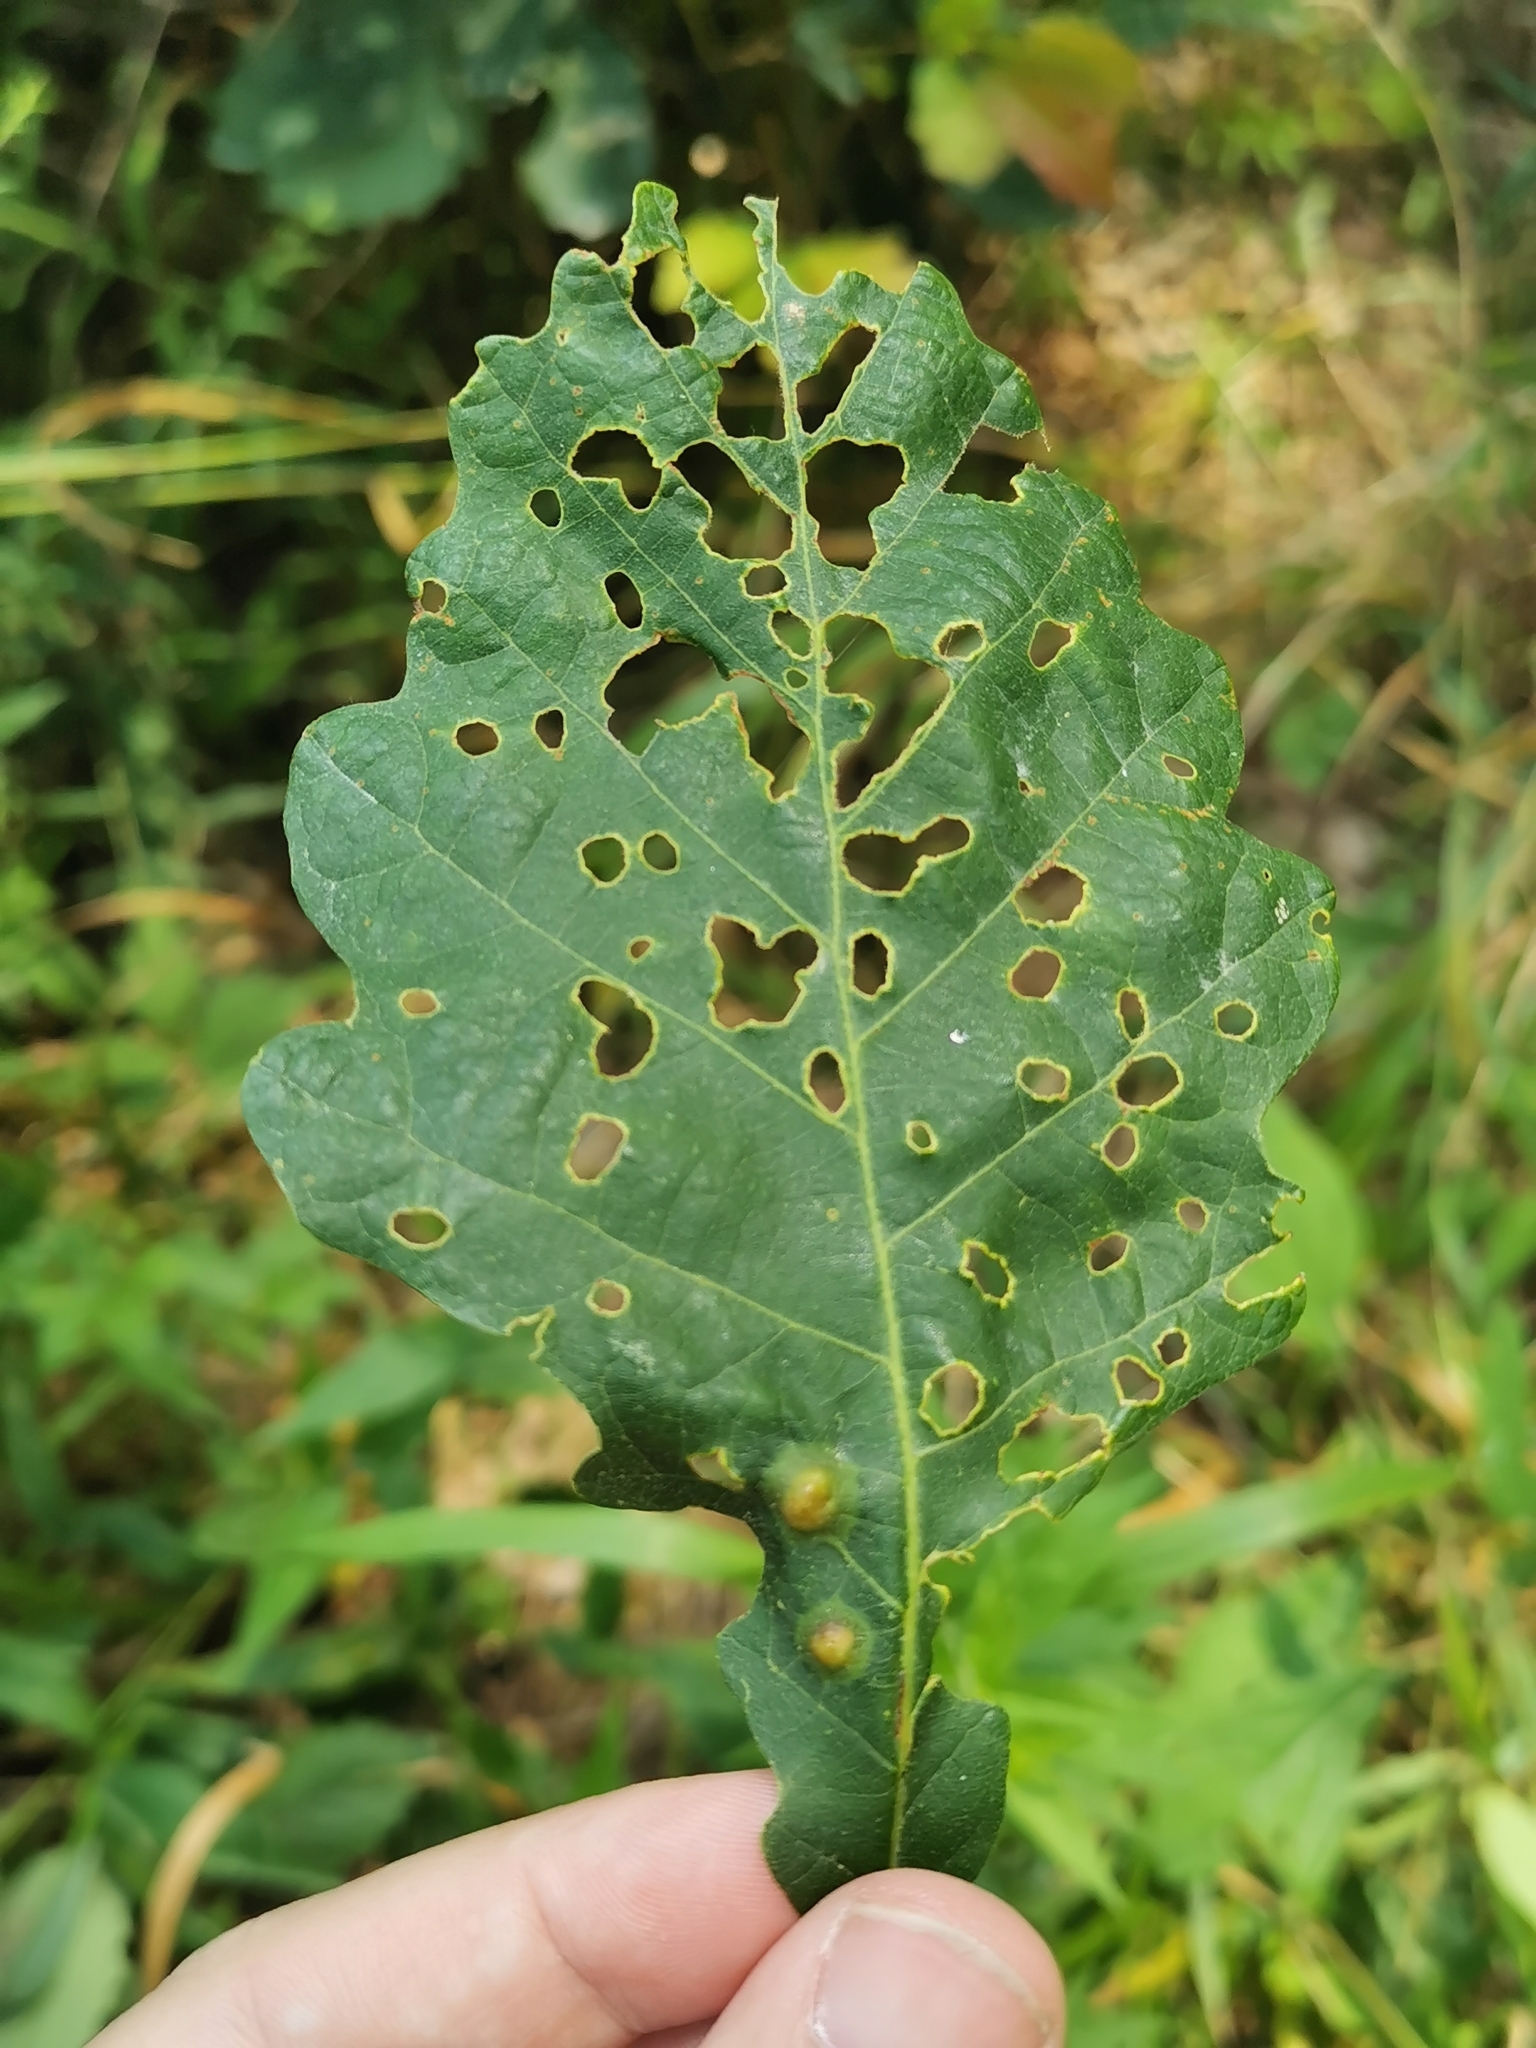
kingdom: Animalia
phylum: Arthropoda
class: Insecta
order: Hymenoptera
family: Cynipidae
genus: Callirhytis
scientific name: Callirhytis
